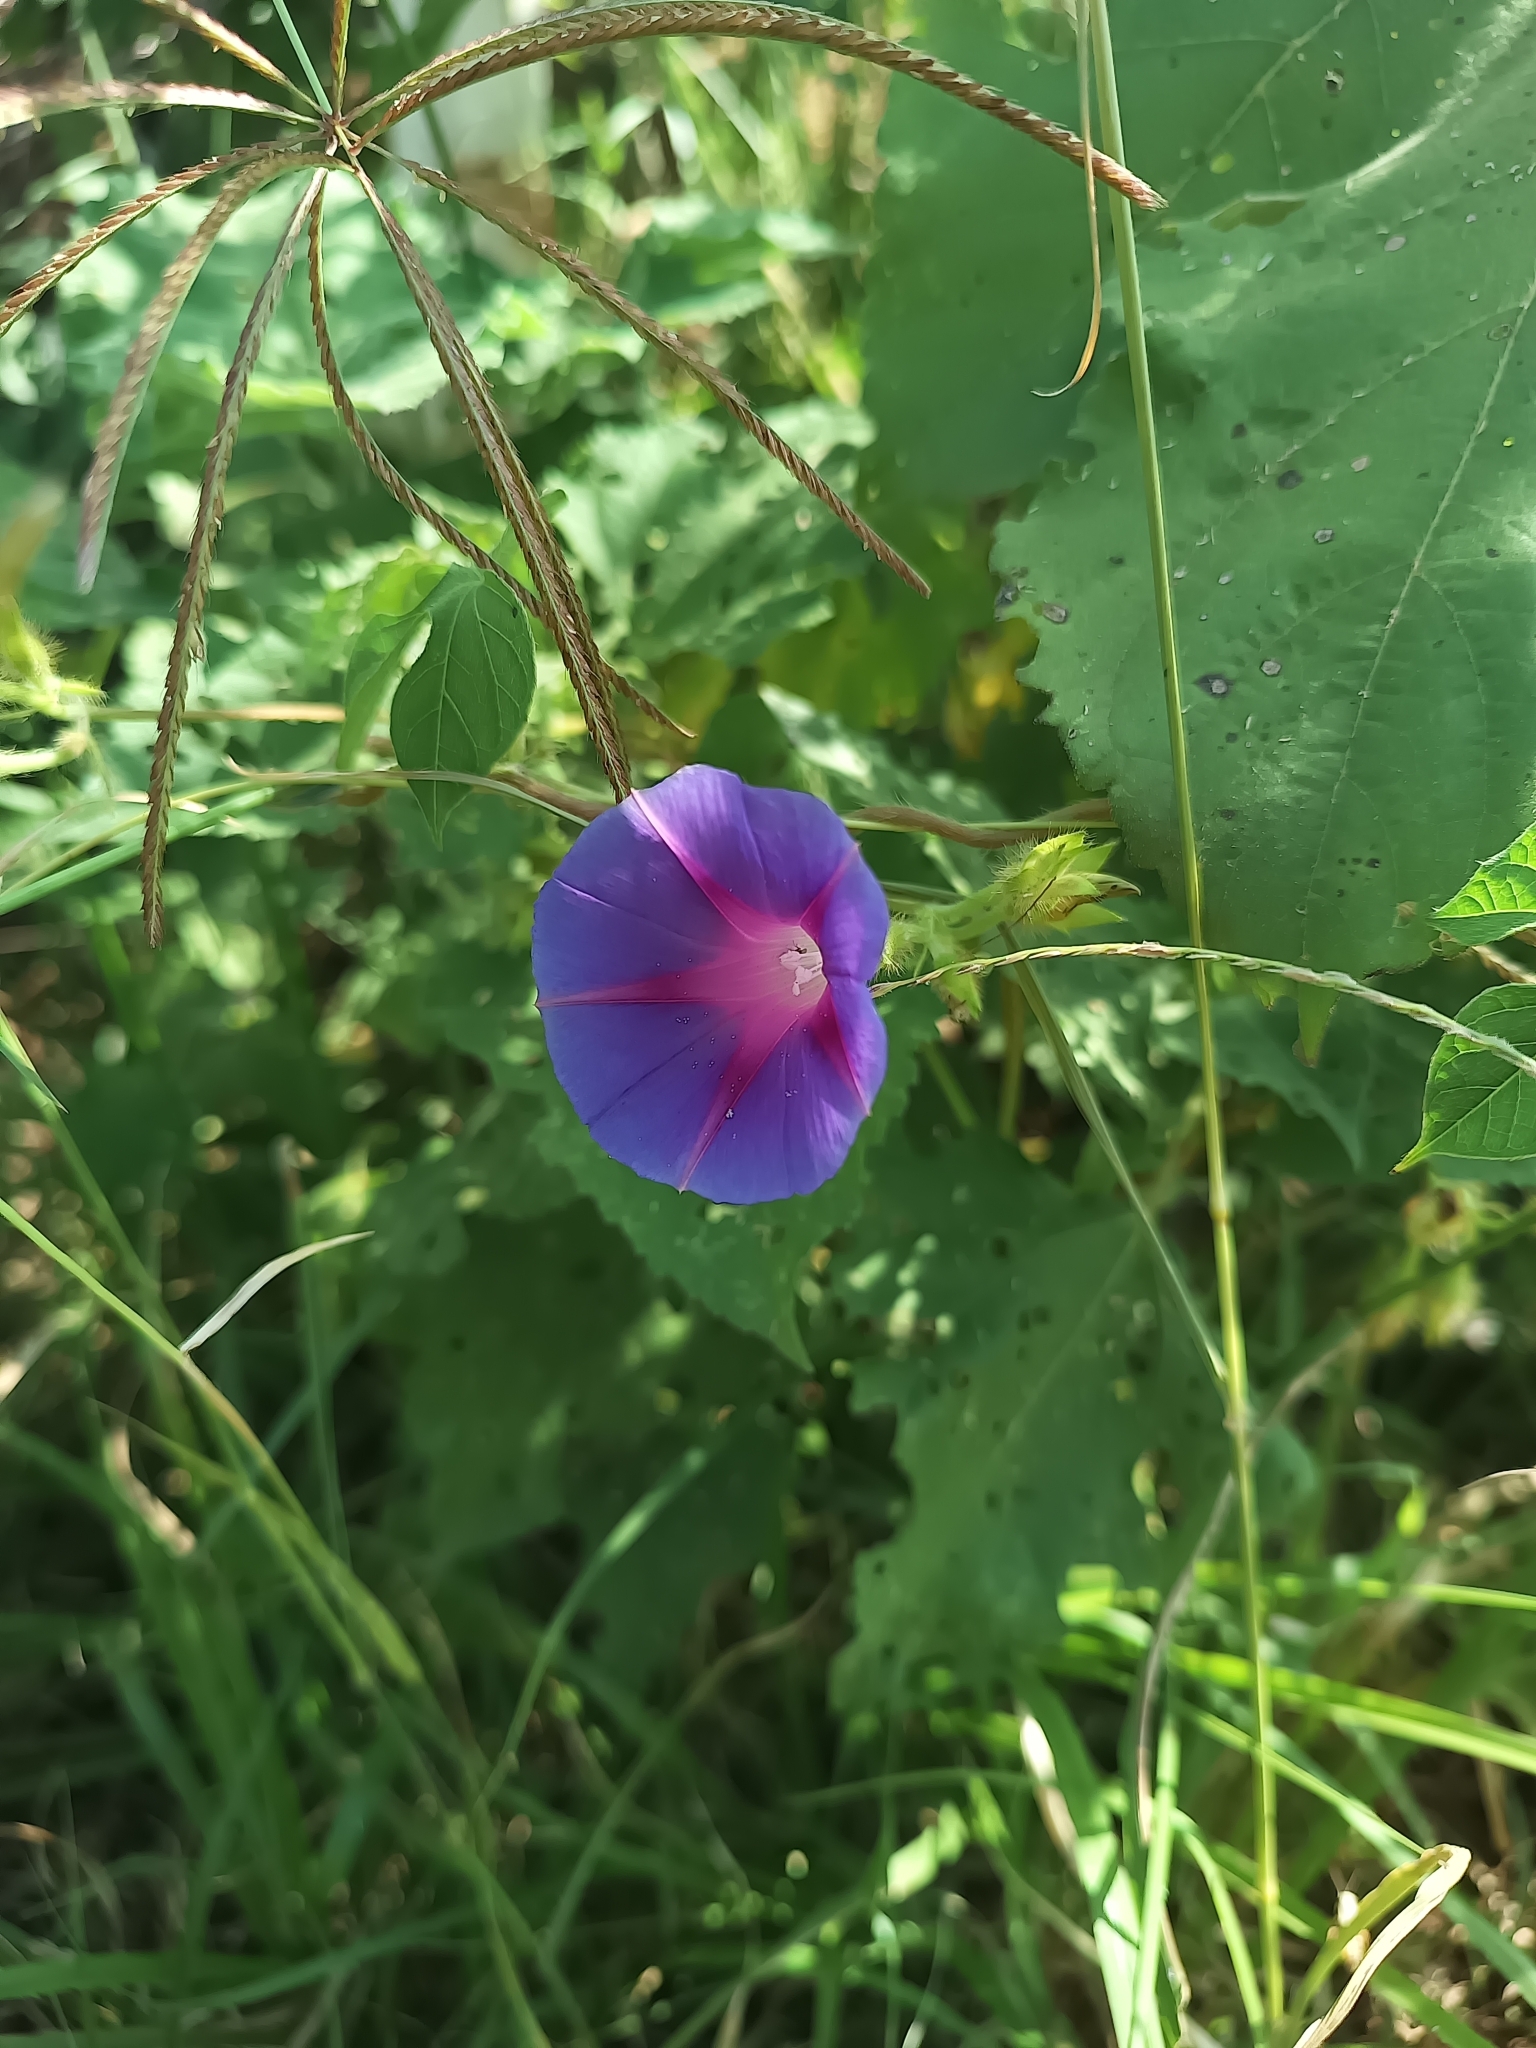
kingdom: Plantae
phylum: Tracheophyta
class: Magnoliopsida
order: Solanales
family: Convolvulaceae
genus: Ipomoea
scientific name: Ipomoea purpurea
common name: Common morning-glory
